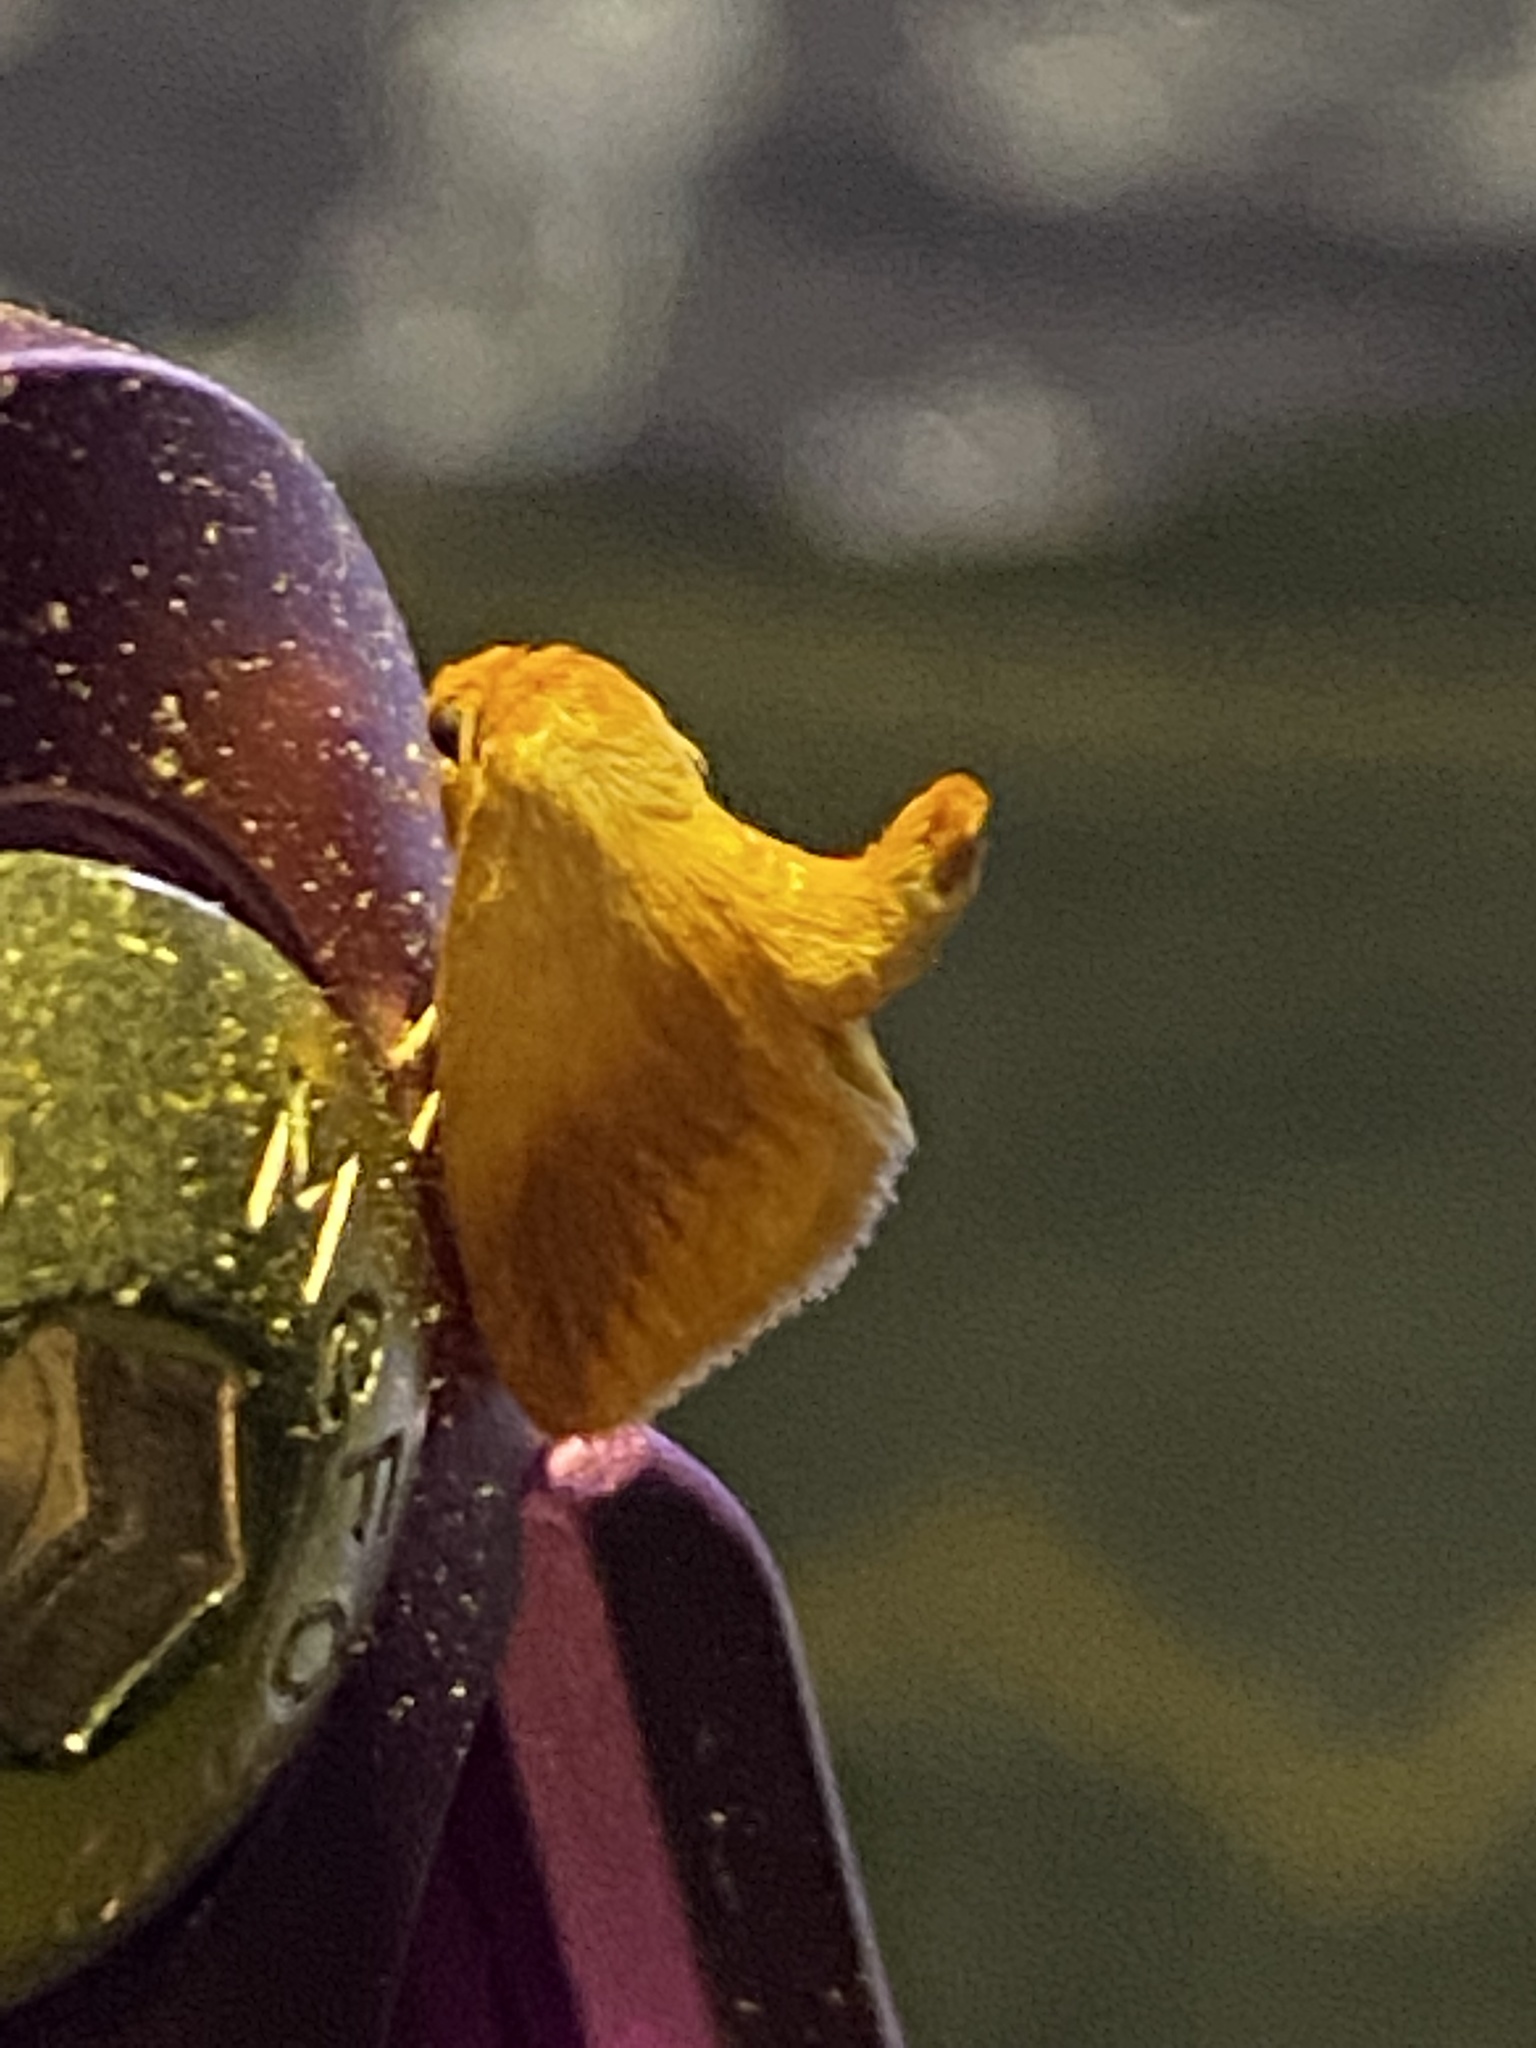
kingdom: Animalia
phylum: Arthropoda
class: Insecta
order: Lepidoptera
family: Limacodidae
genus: Tortricidia
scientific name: Tortricidia testacea
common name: Early button slug moth
